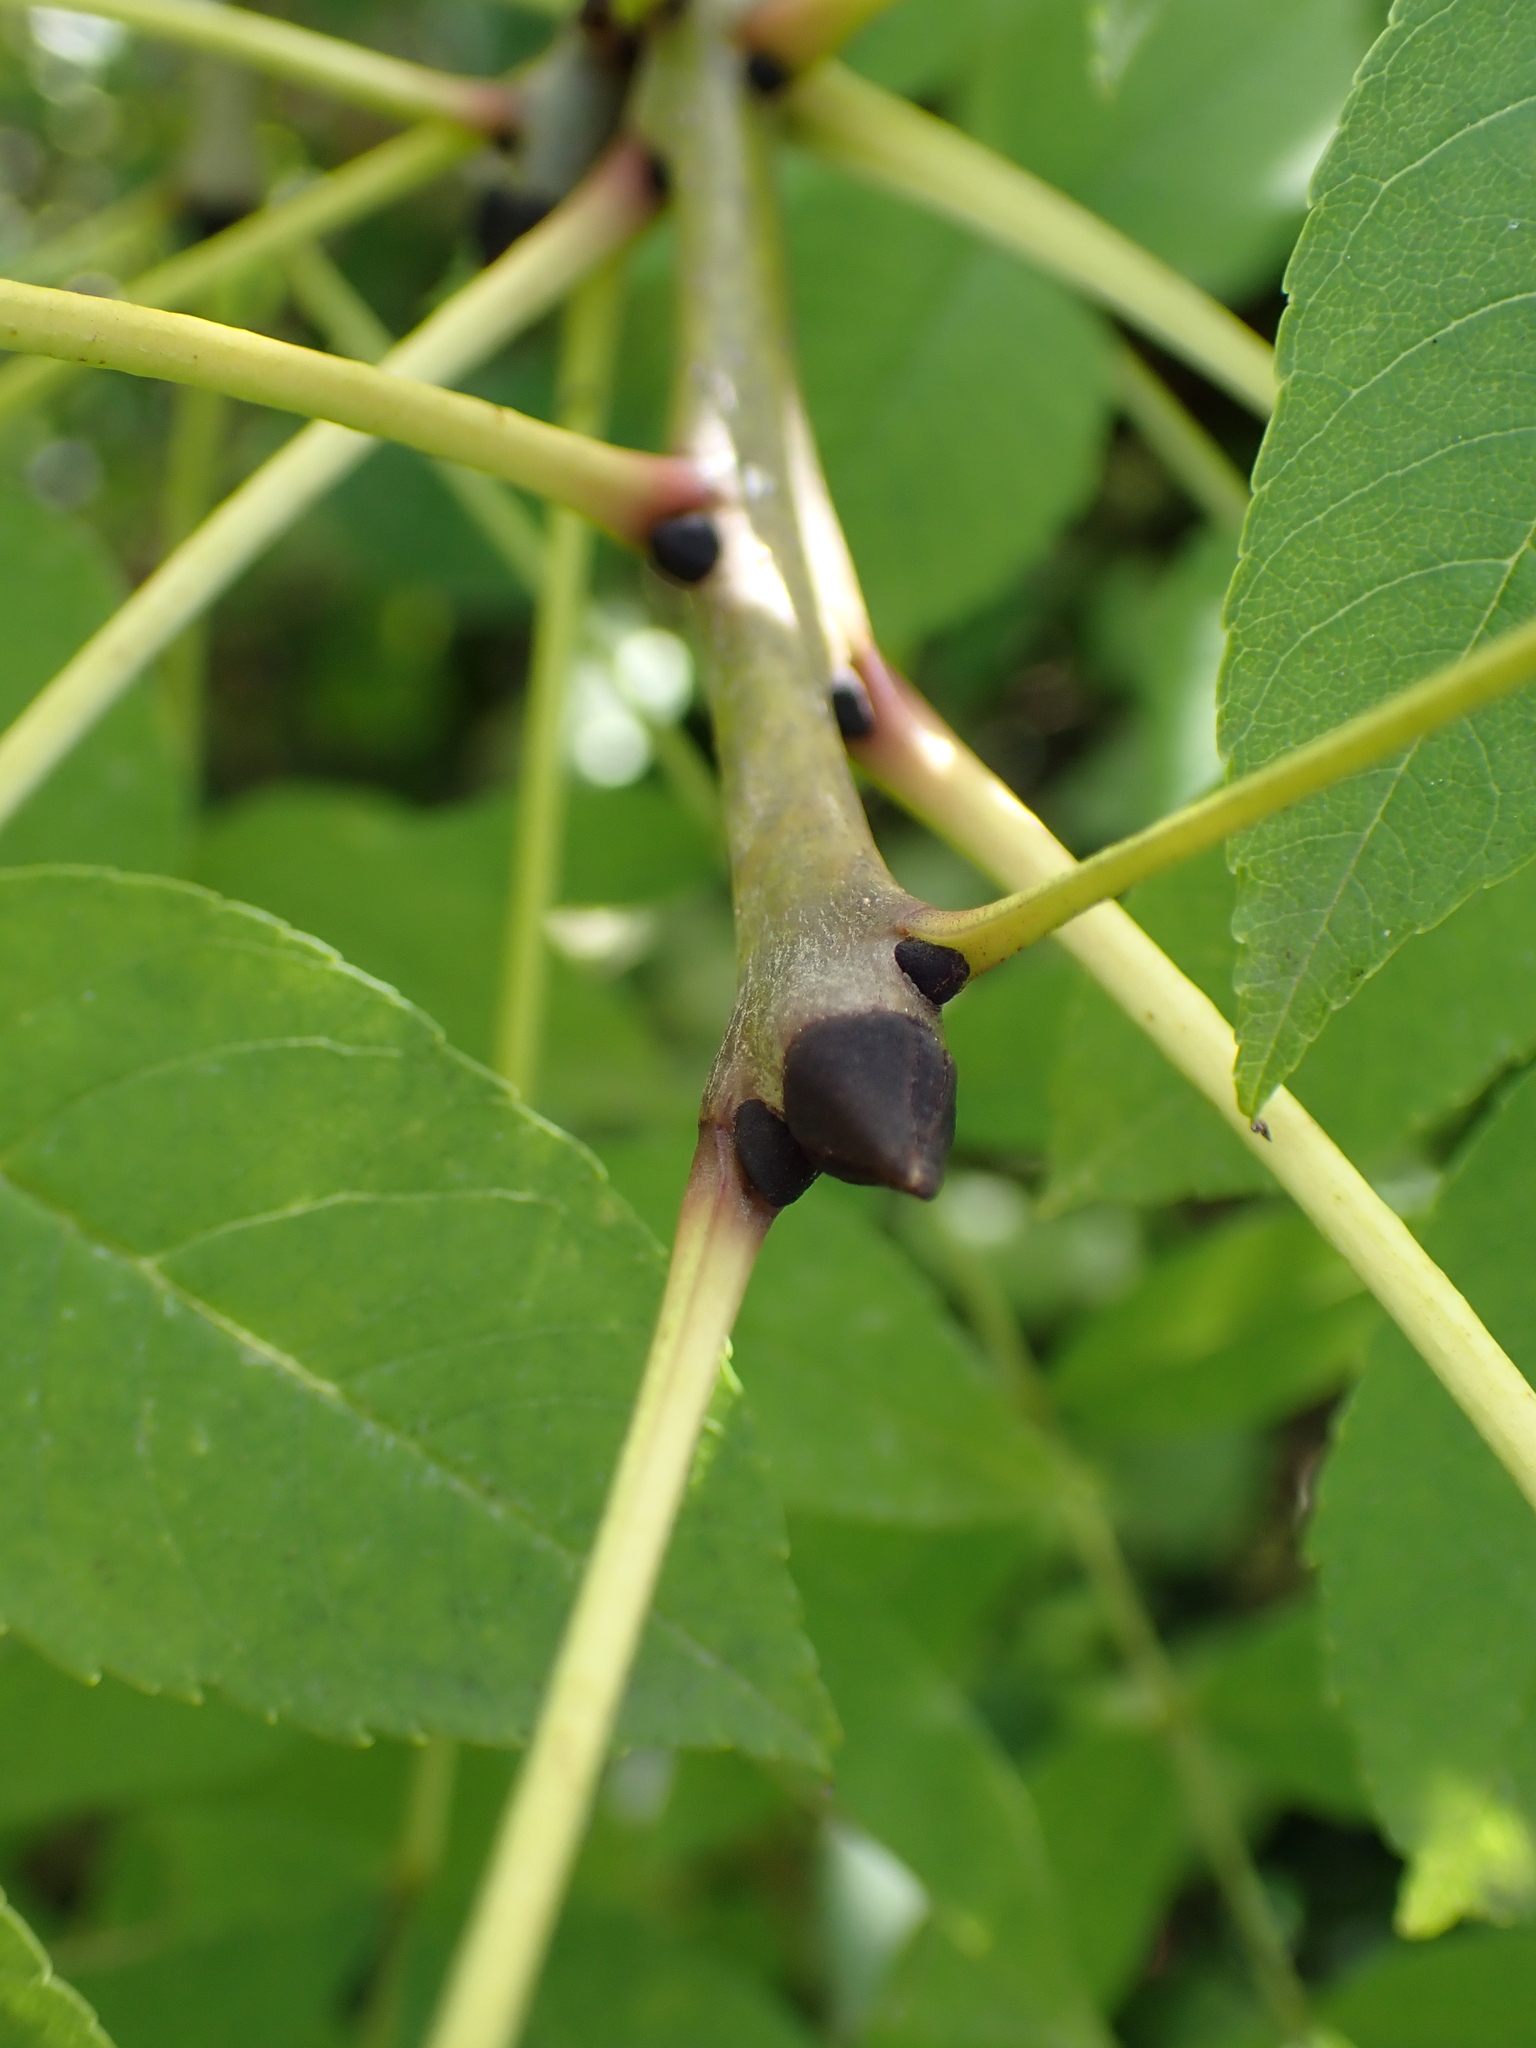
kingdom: Plantae
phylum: Tracheophyta
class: Magnoliopsida
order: Lamiales
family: Oleaceae
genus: Fraxinus
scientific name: Fraxinus excelsior
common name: European ash
